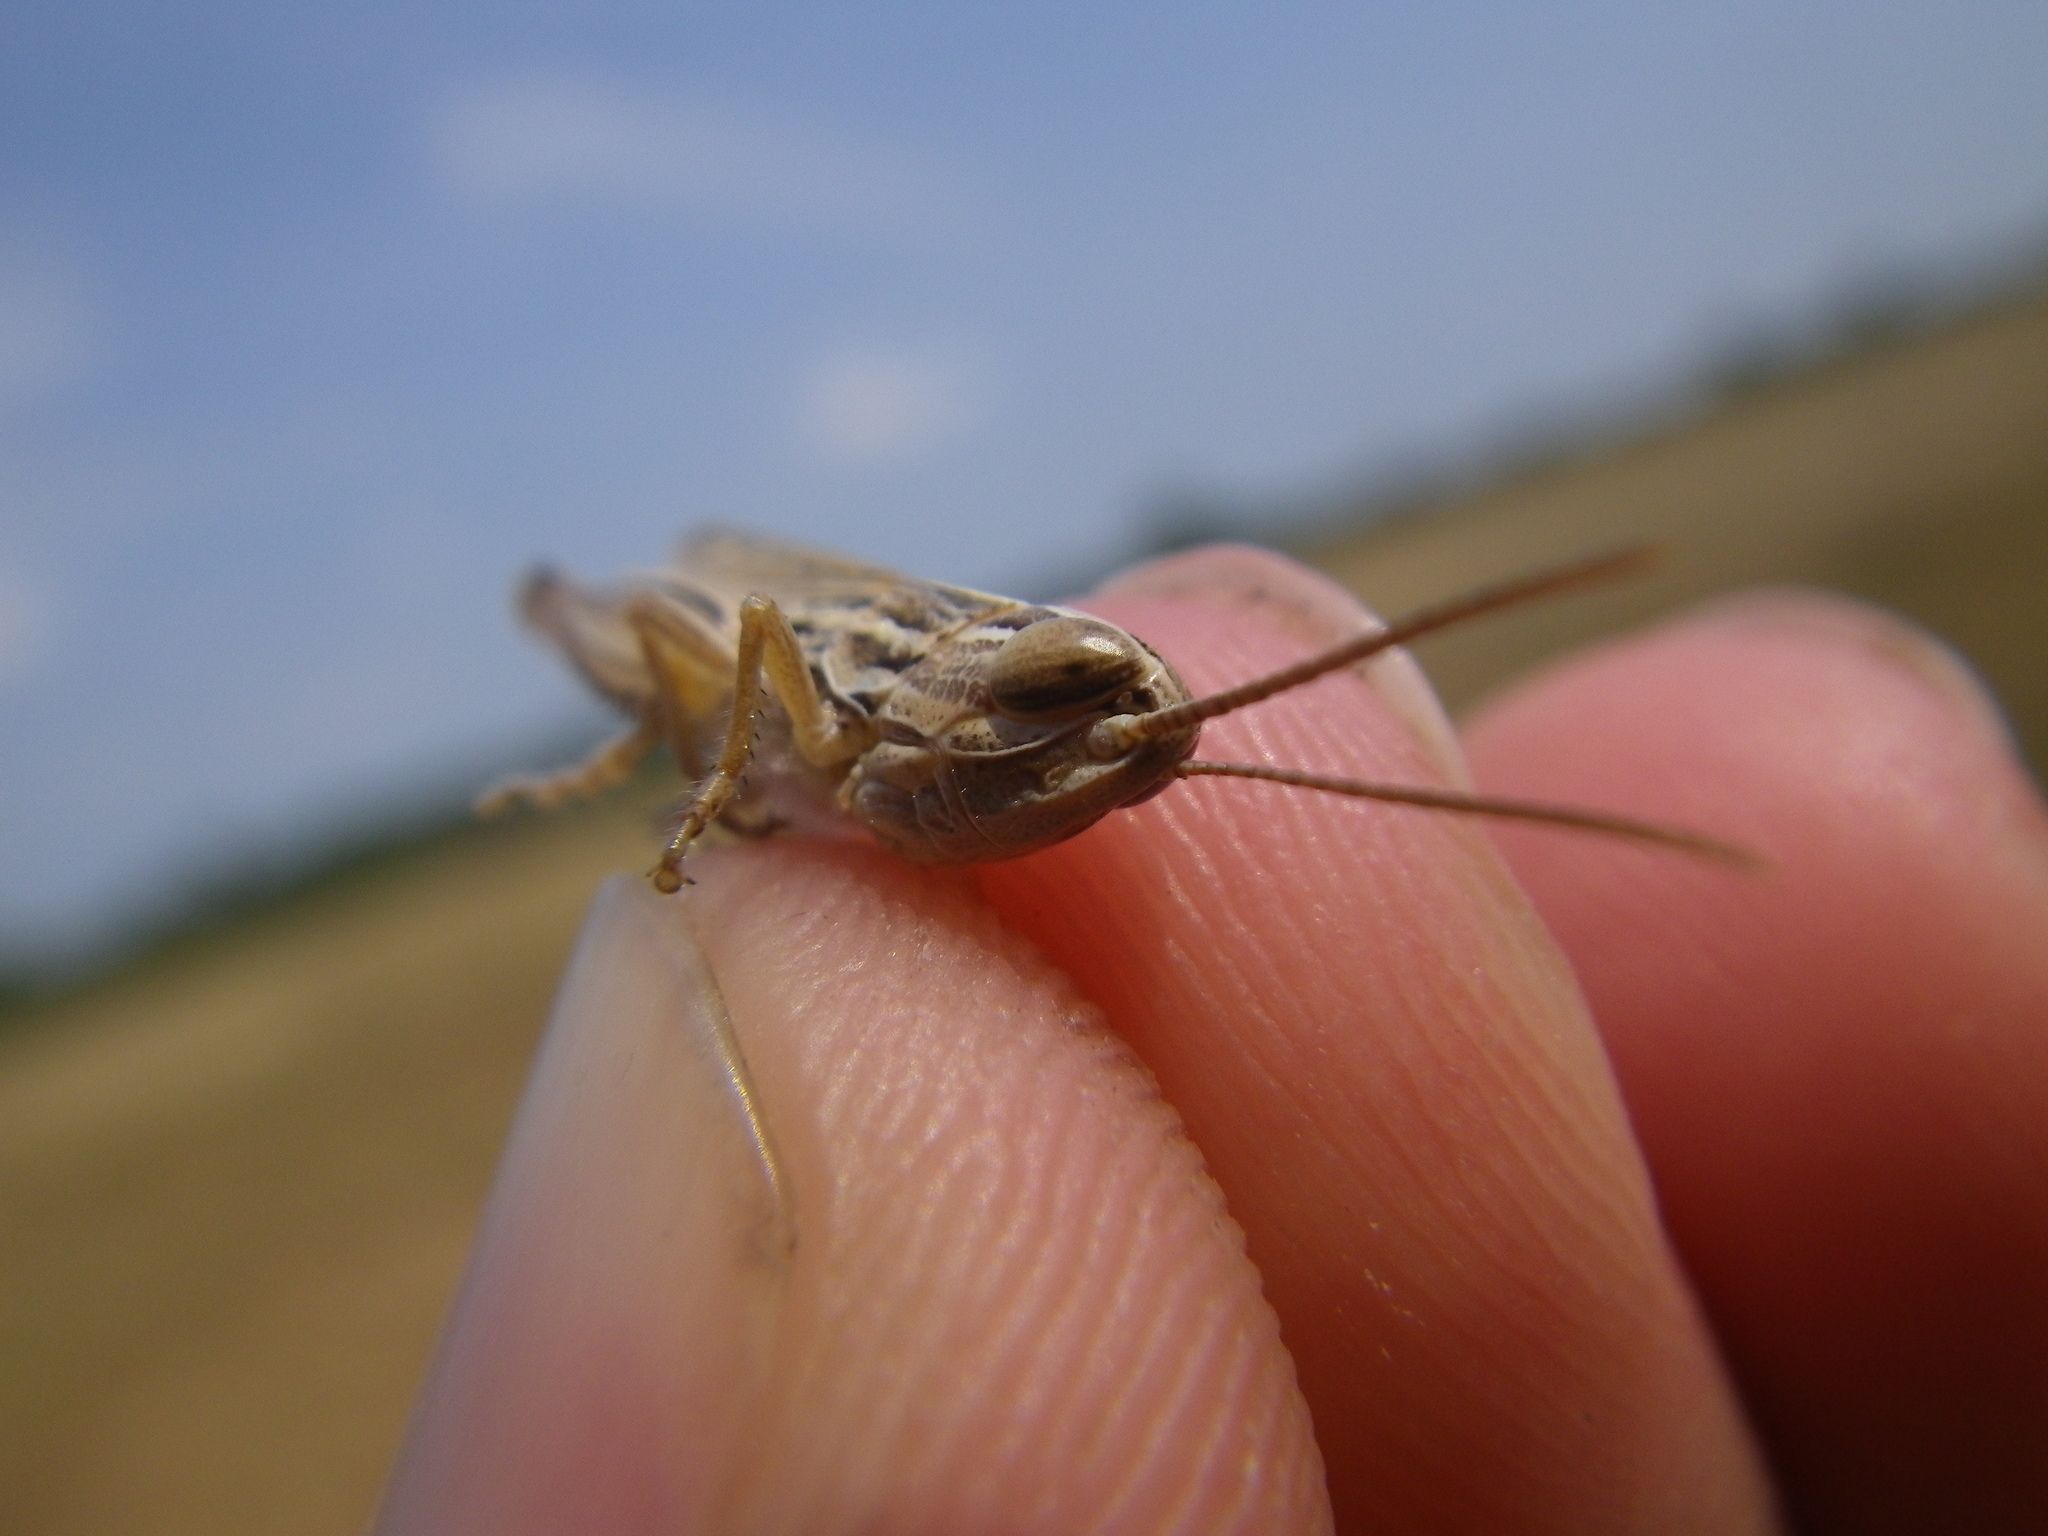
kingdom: Animalia
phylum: Arthropoda
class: Insecta
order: Orthoptera
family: Acrididae
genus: Euchorthippus
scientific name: Euchorthippus elegantulus
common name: Elegant straw grasshopper
